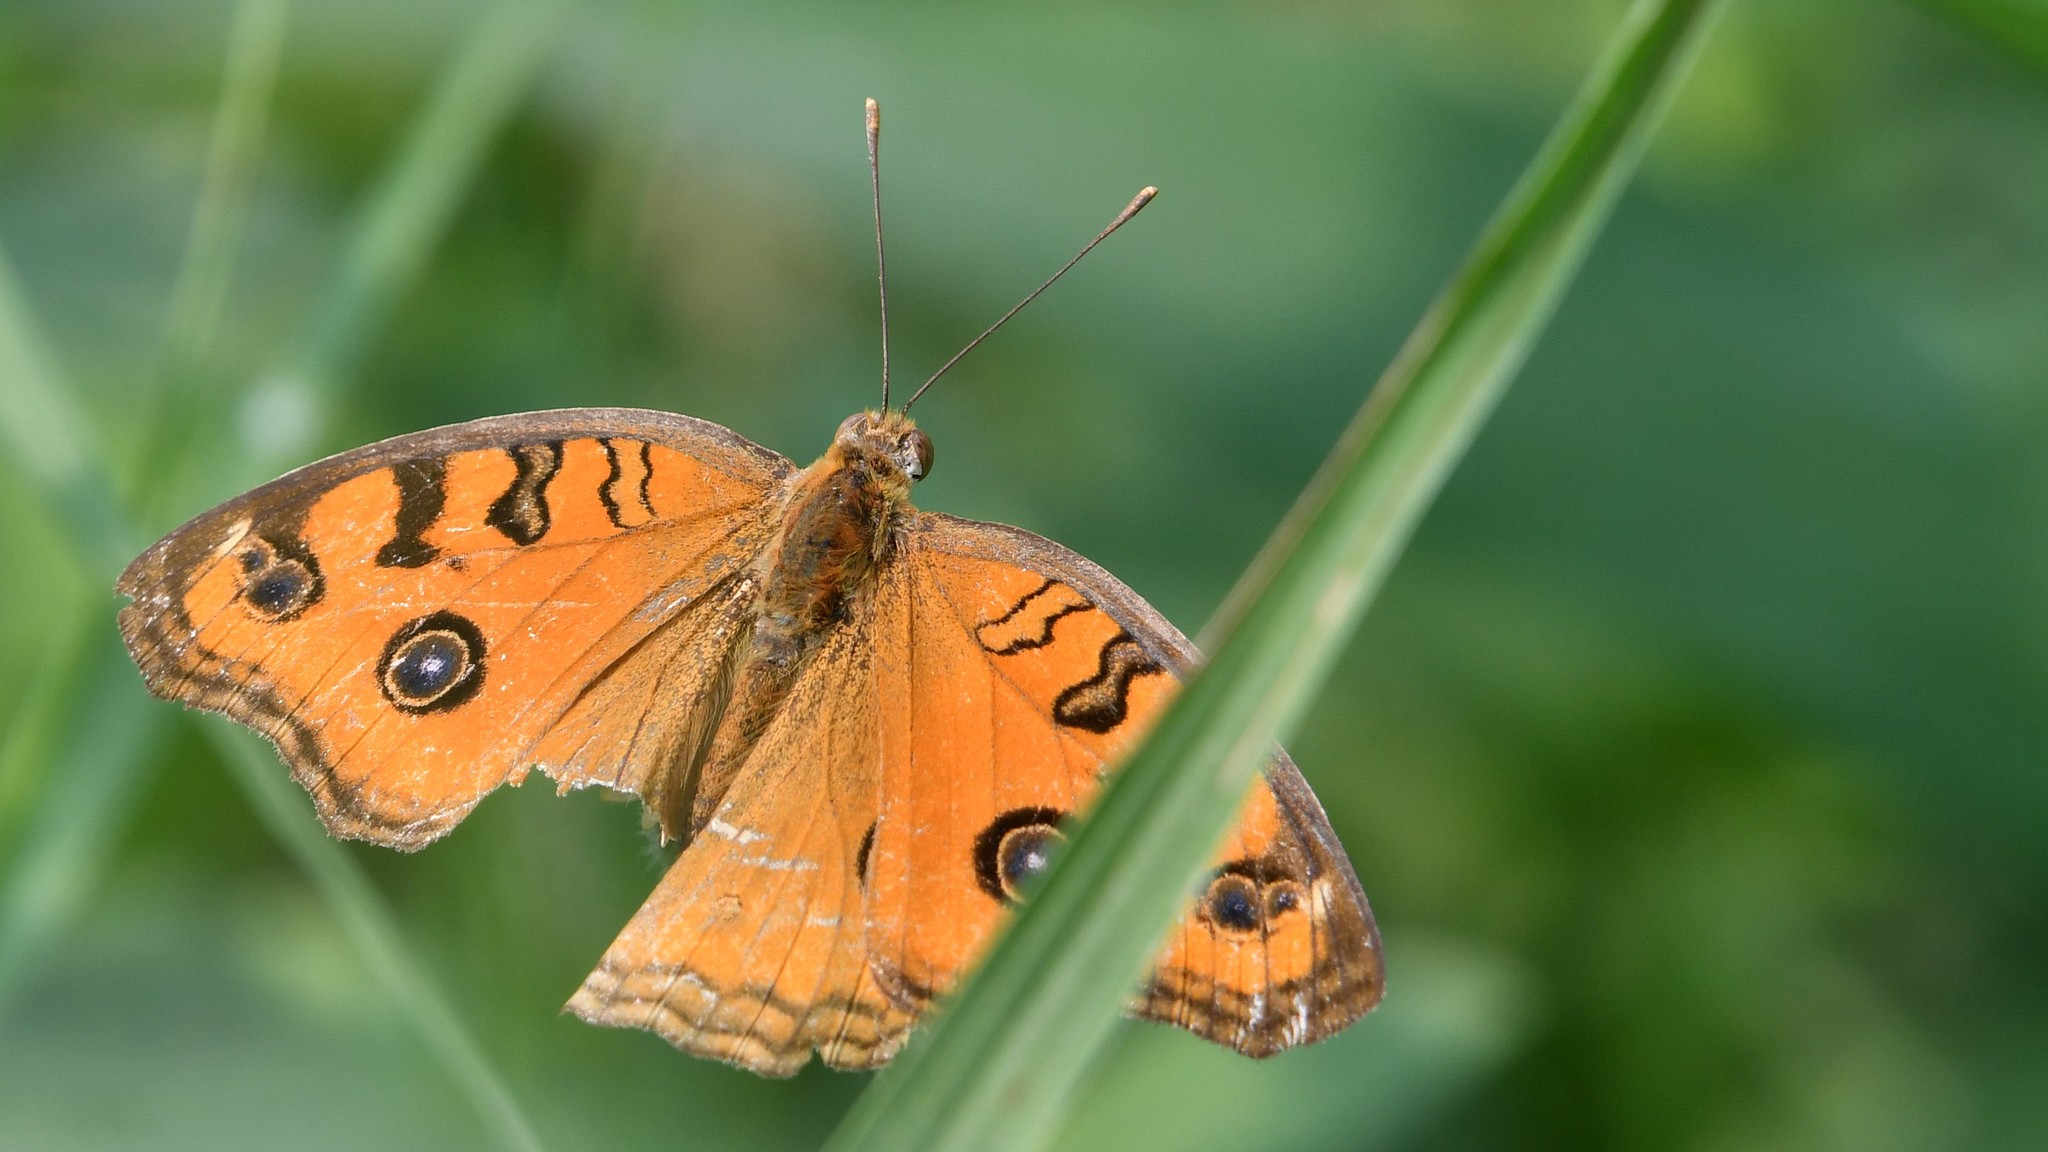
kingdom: Animalia
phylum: Arthropoda
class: Insecta
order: Lepidoptera
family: Nymphalidae
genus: Junonia
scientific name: Junonia almana
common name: Peacock pansy
